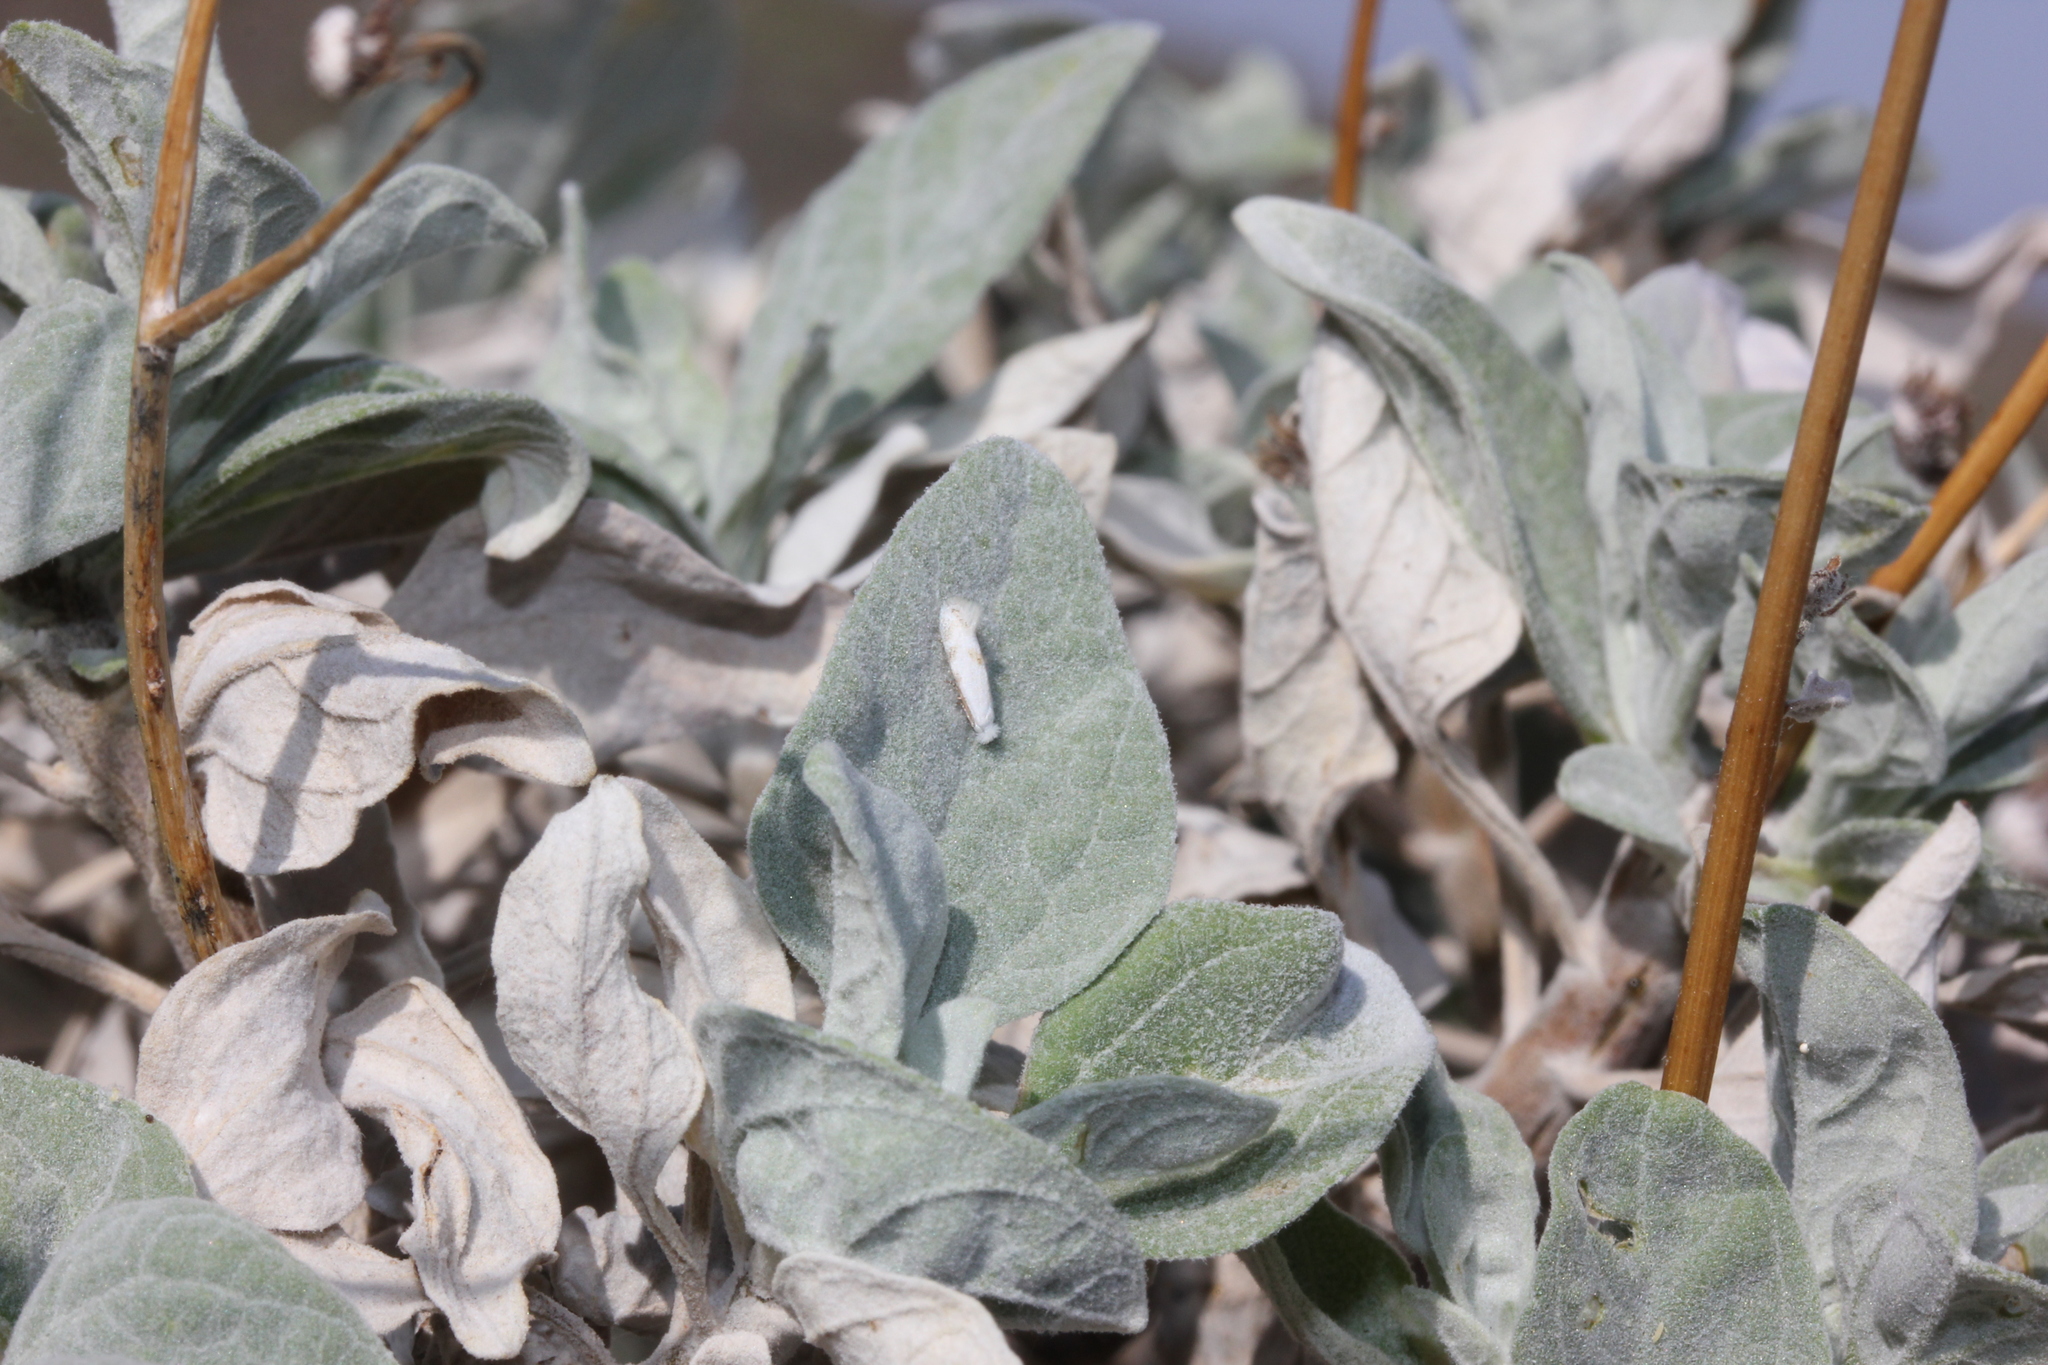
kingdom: Plantae
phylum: Tracheophyta
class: Magnoliopsida
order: Asterales
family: Asteraceae
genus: Encelia
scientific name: Encelia farinosa
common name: Brittlebush
